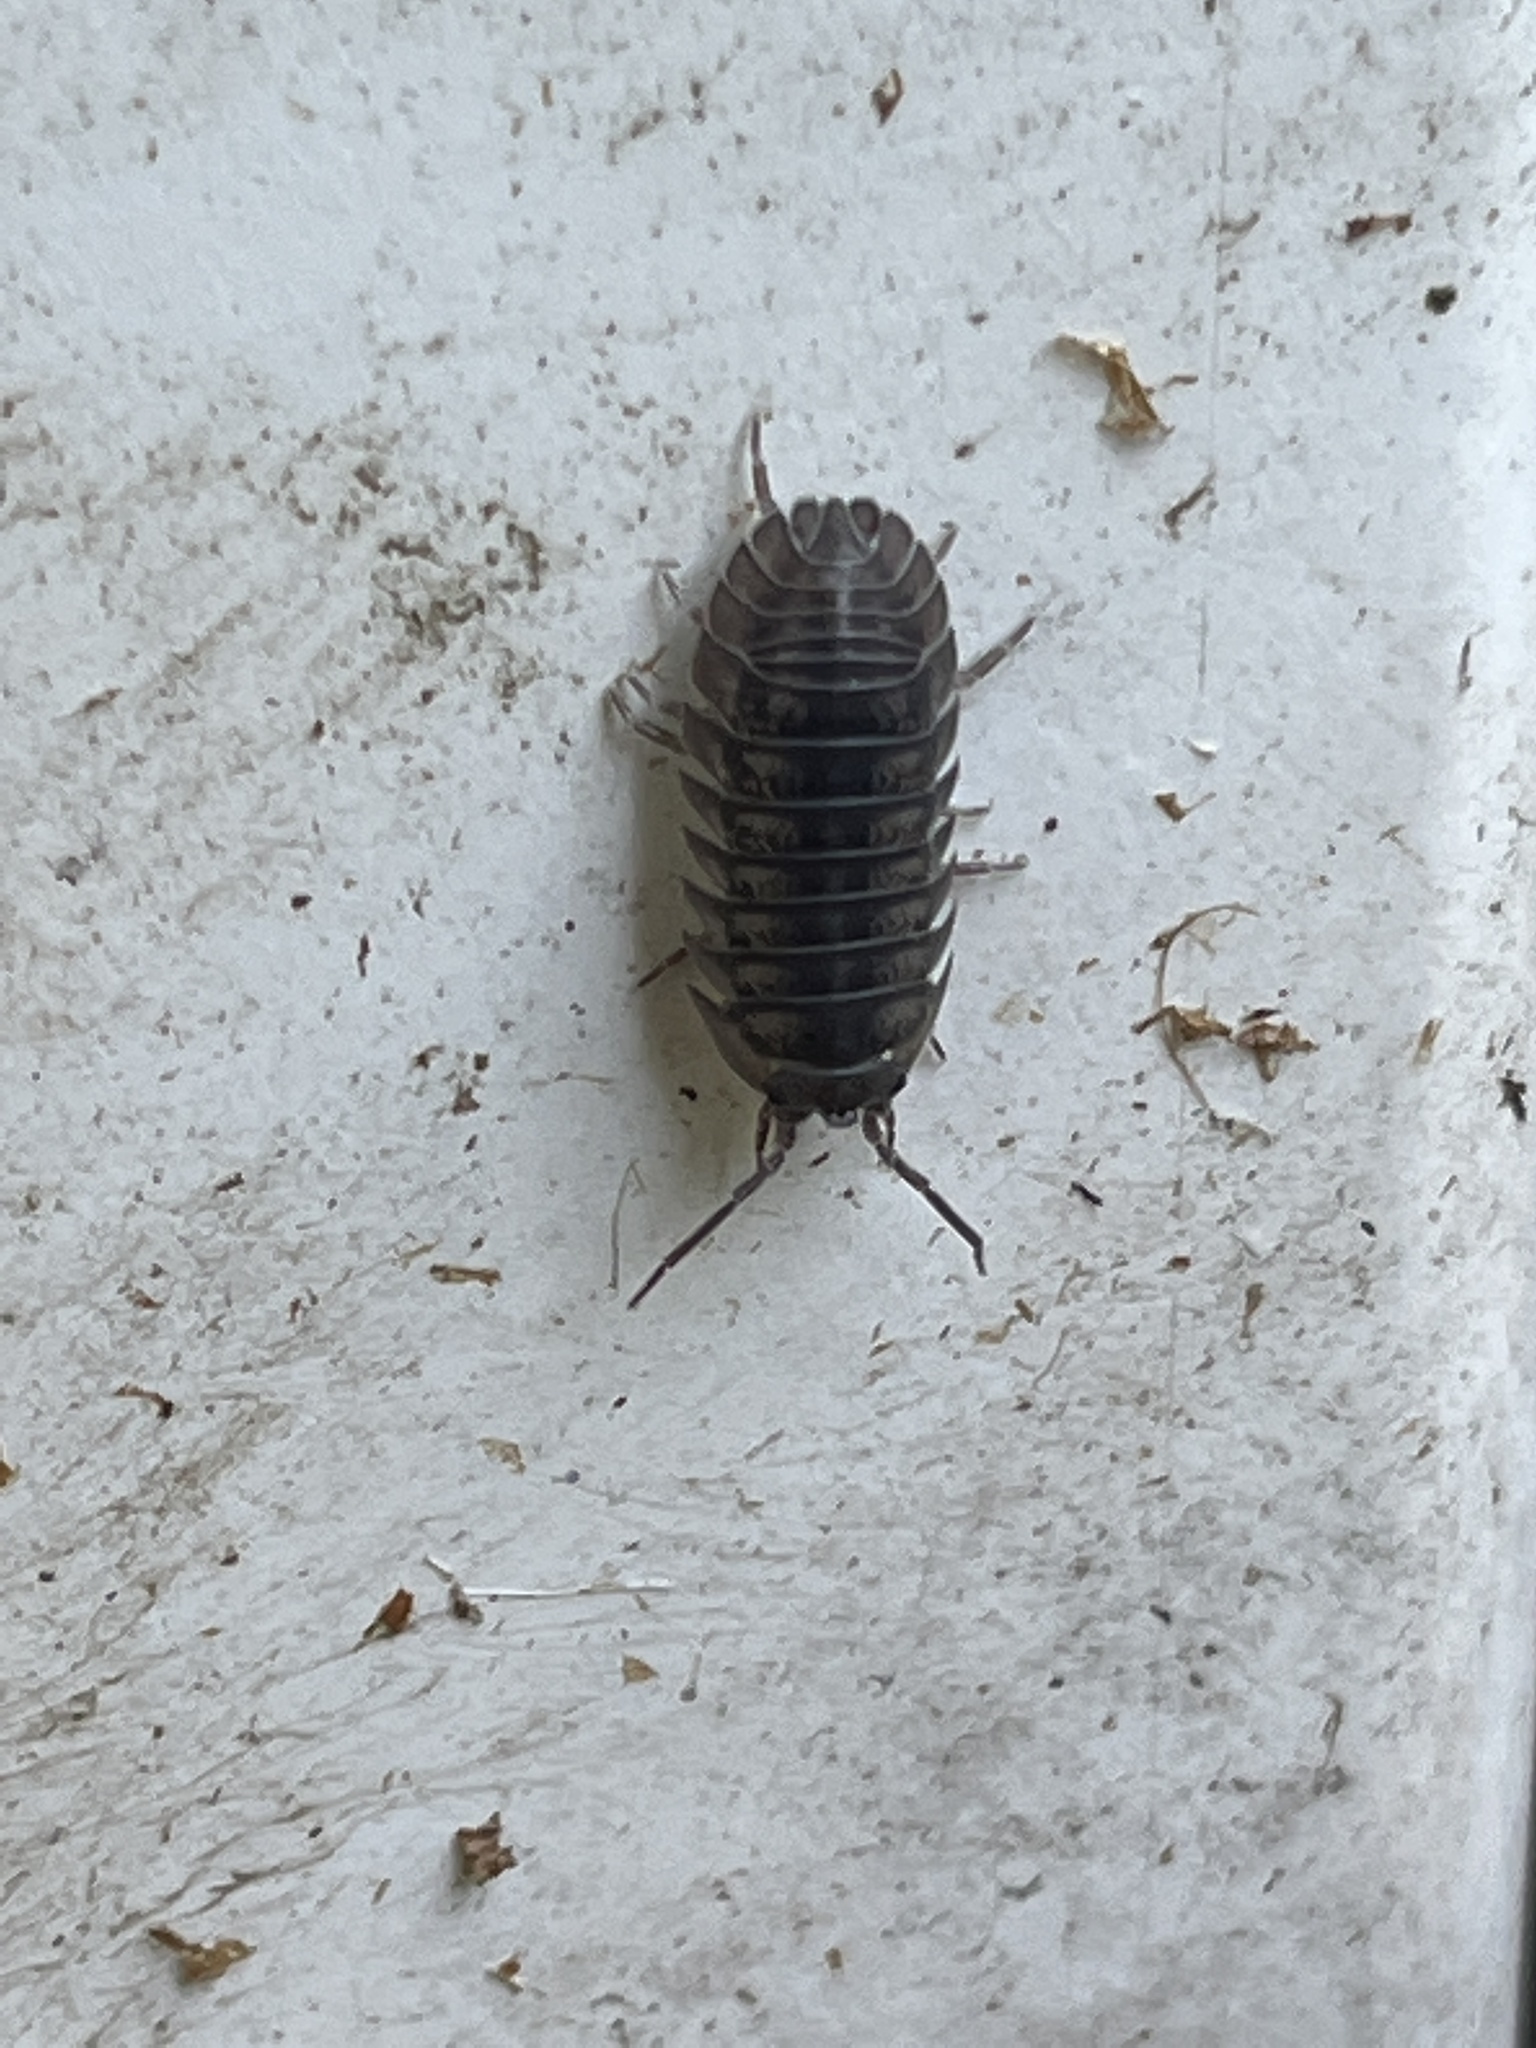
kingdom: Animalia
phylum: Arthropoda
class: Malacostraca
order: Isopoda
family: Armadillidiidae
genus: Armadillidium
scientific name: Armadillidium nasatum
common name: Isopod
